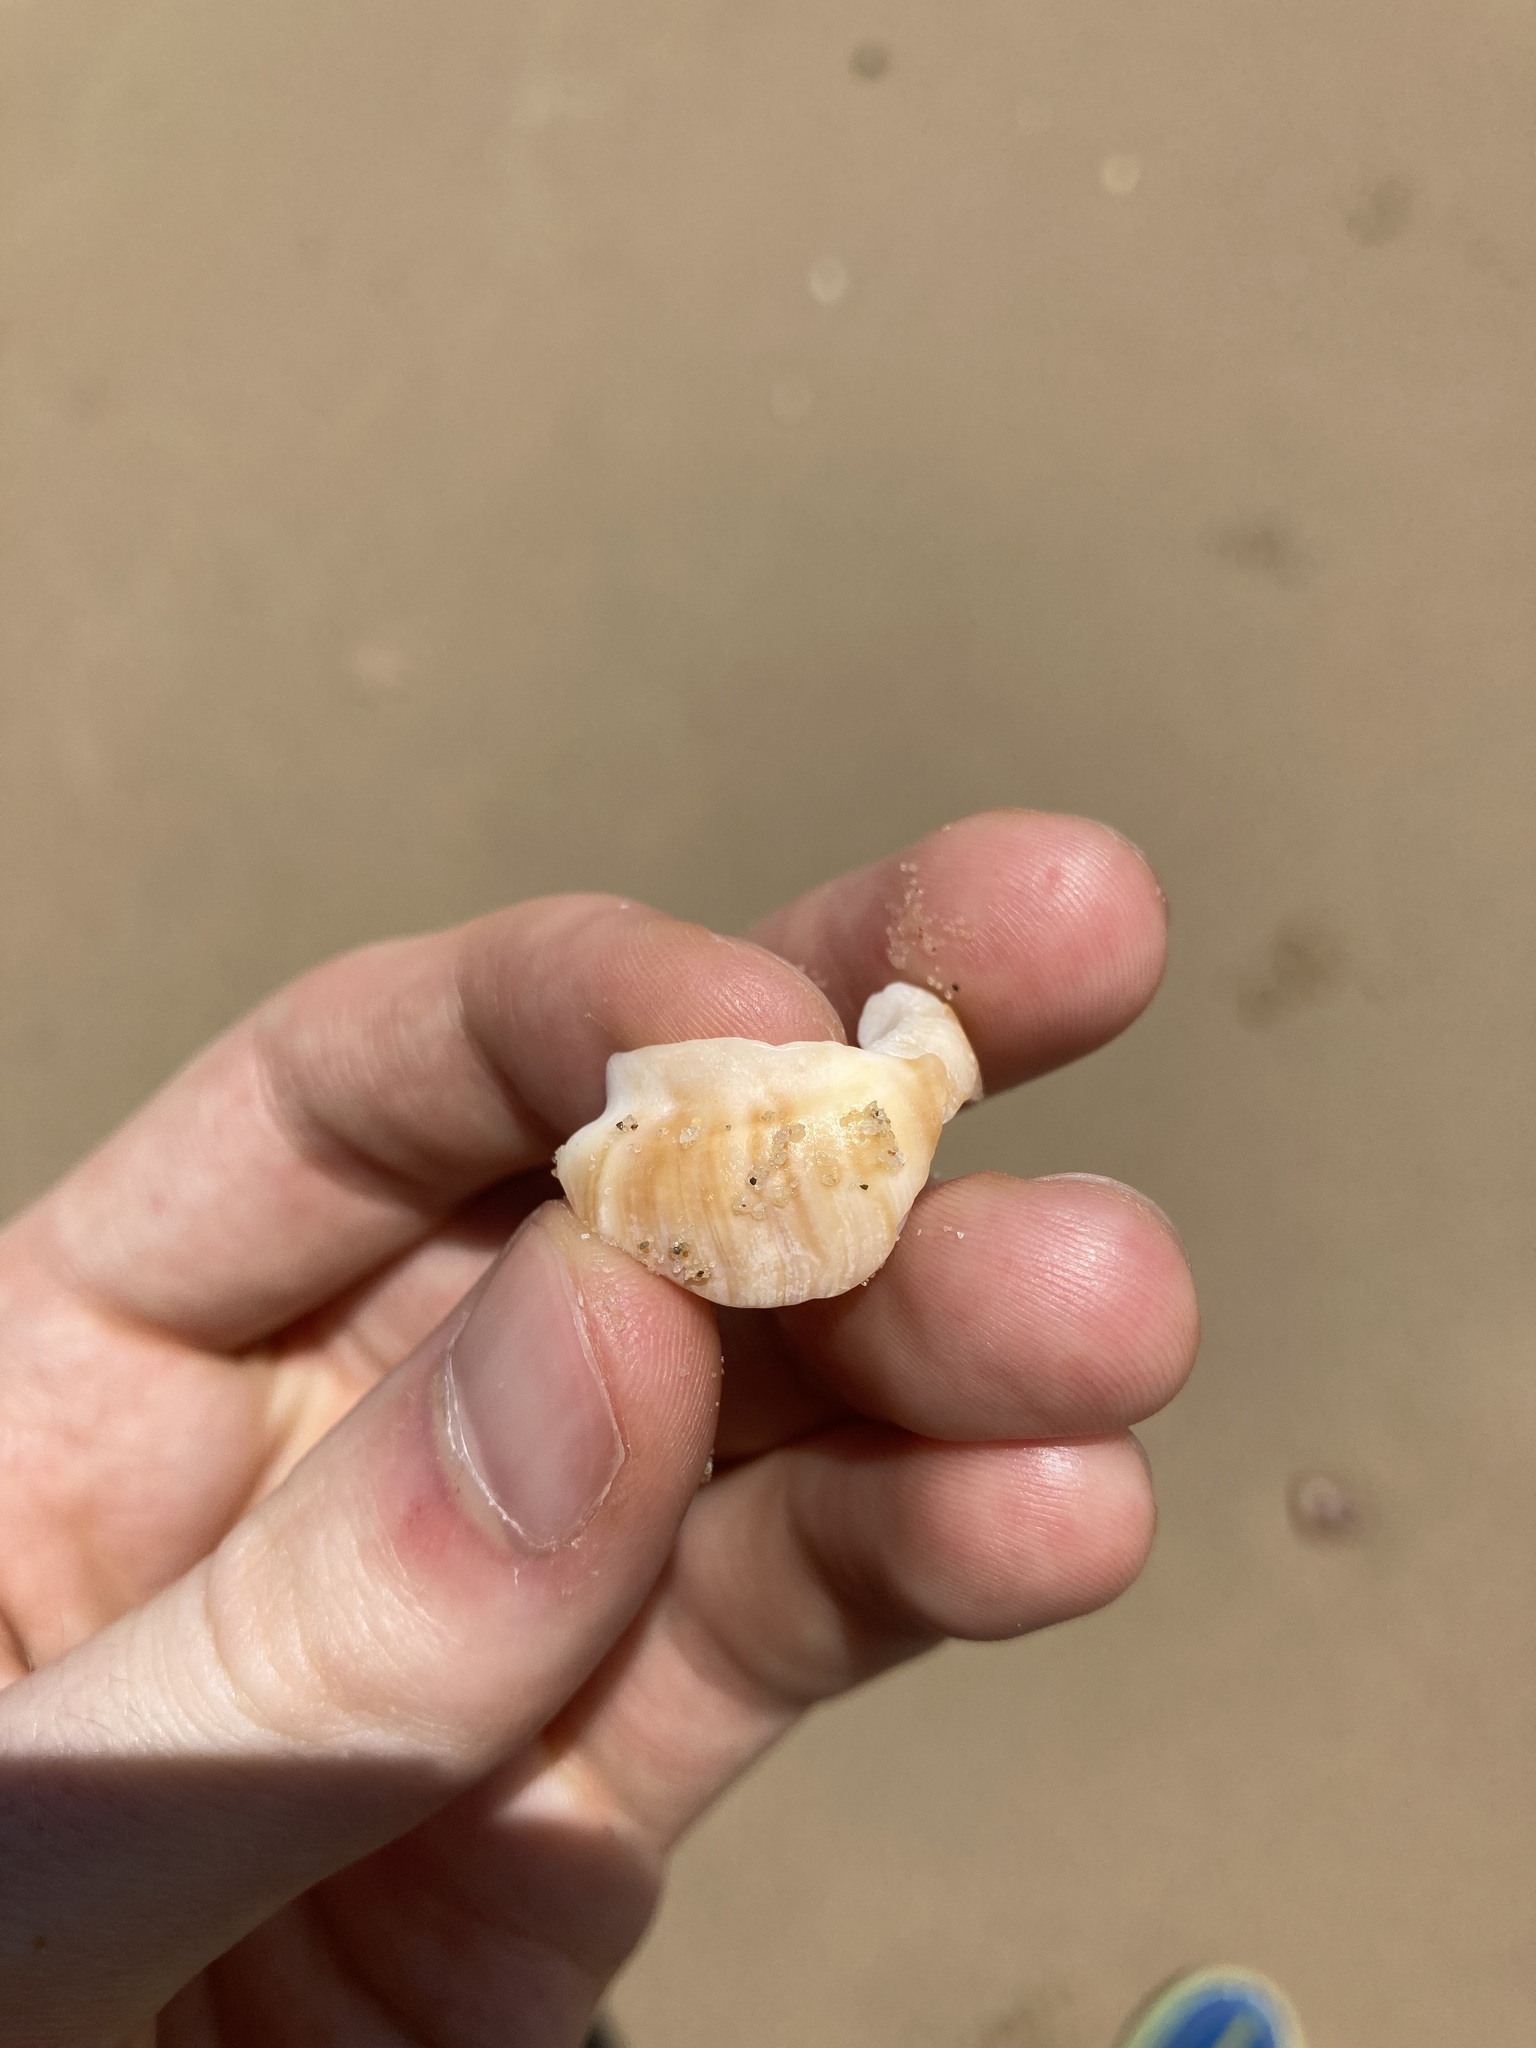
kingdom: Animalia
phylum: Mollusca
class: Gastropoda
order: Littorinimorpha
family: Struthiolariidae
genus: Tylospira
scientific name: Tylospira scutulata
